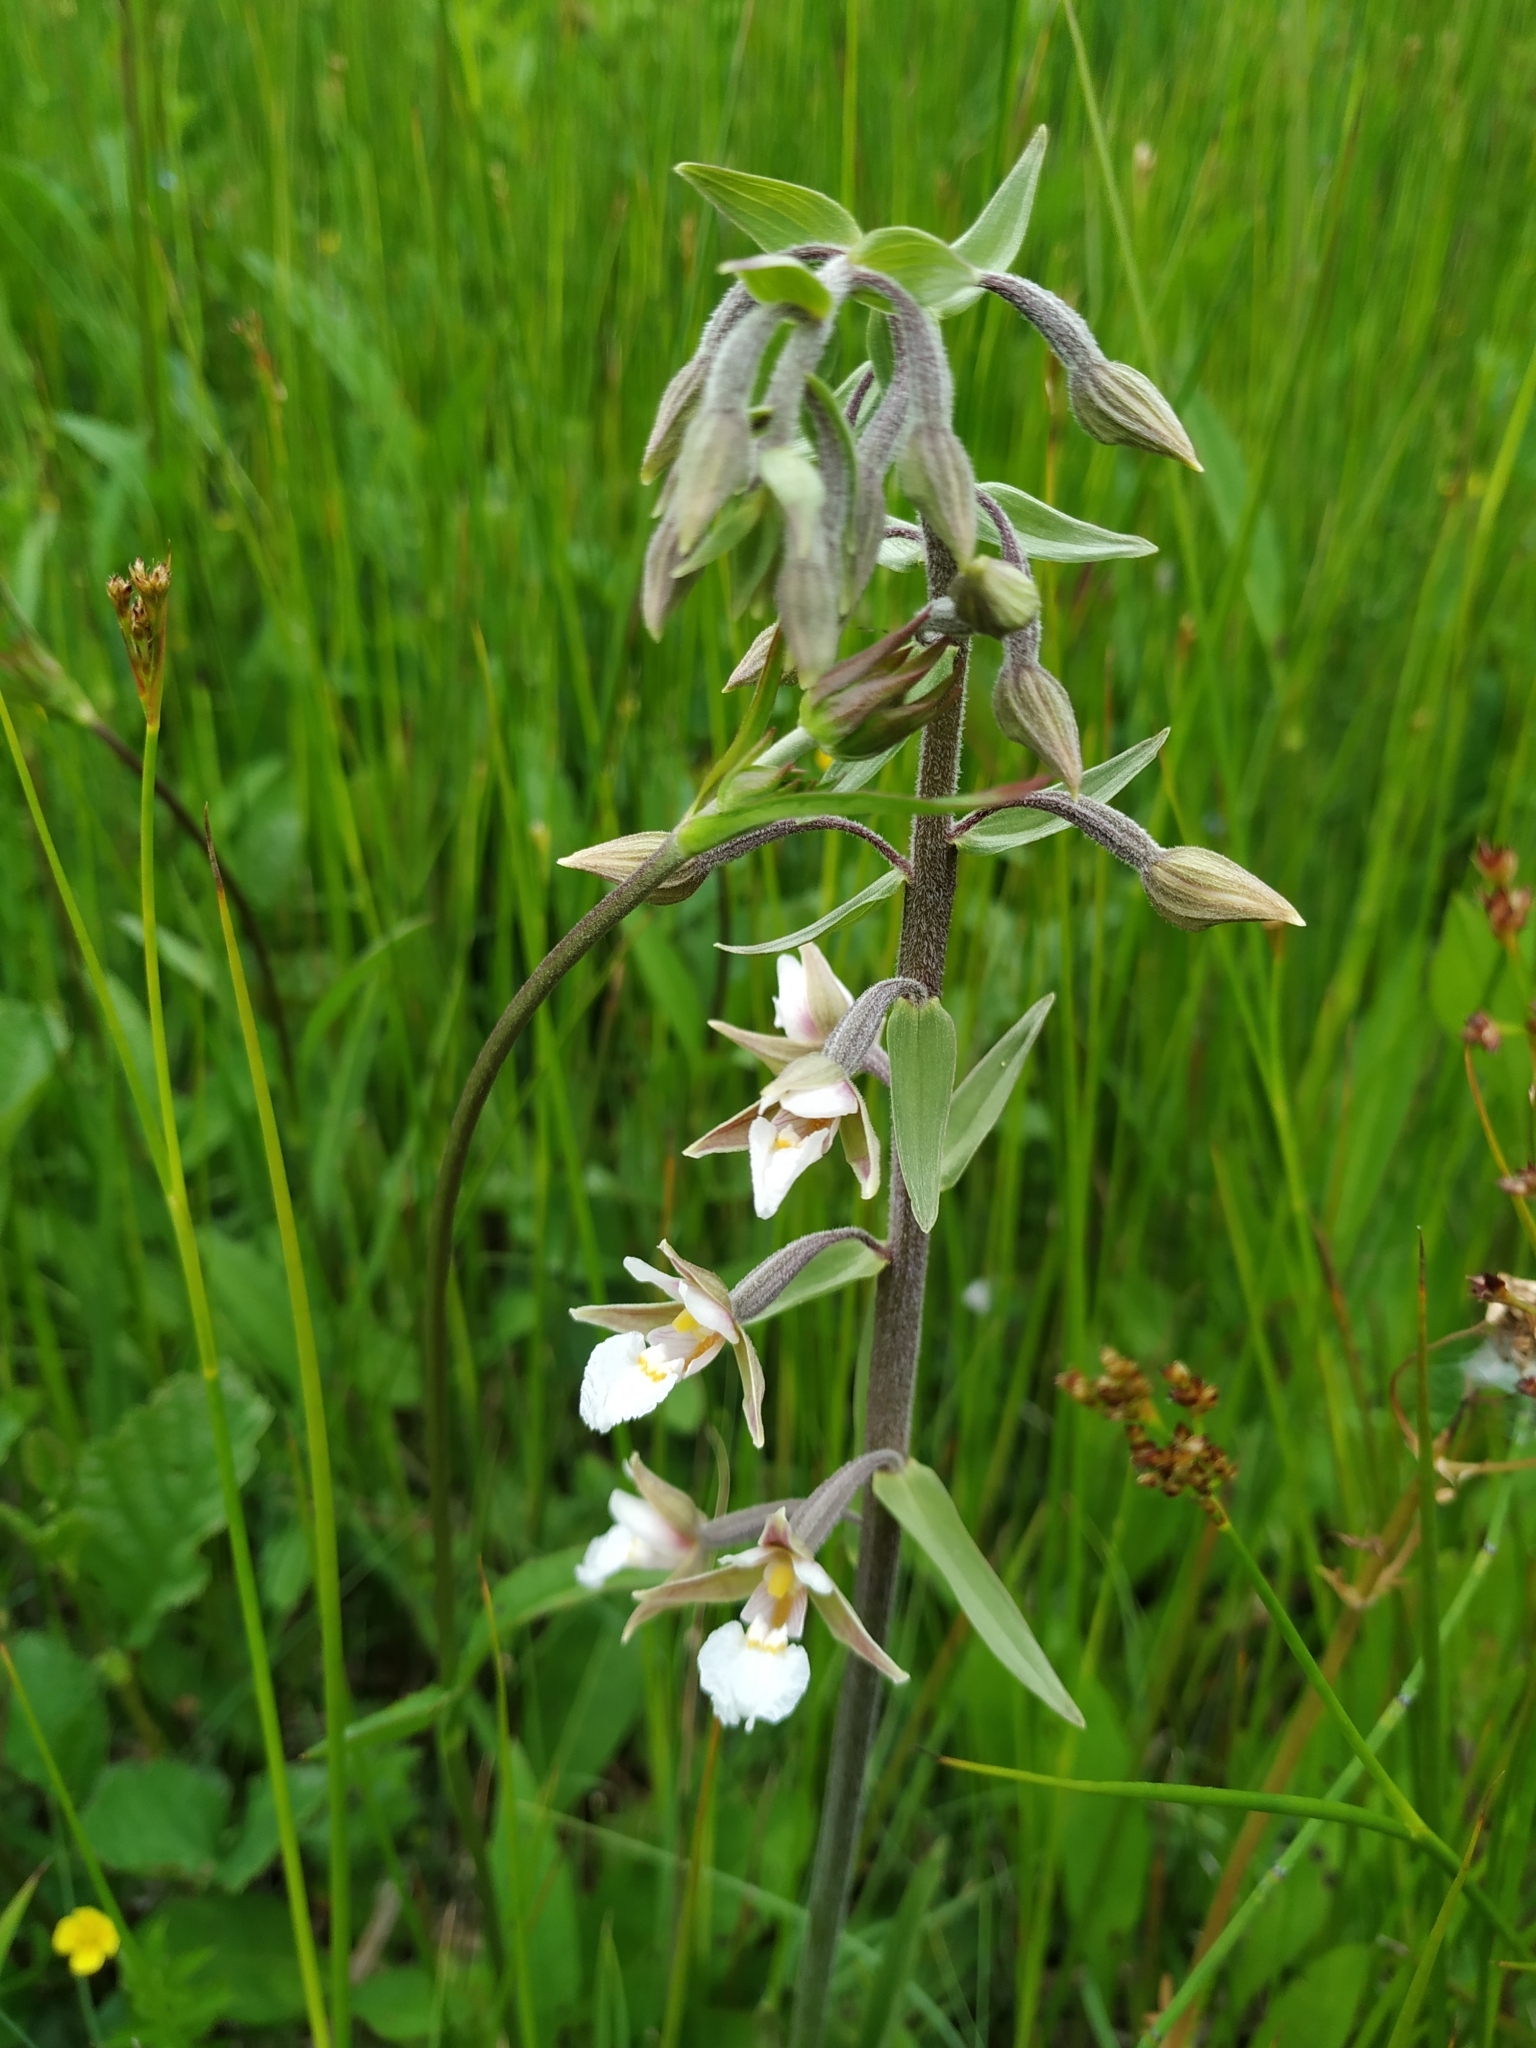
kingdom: Plantae
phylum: Tracheophyta
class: Liliopsida
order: Asparagales
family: Orchidaceae
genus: Epipactis
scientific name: Epipactis palustris
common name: Marsh helleborine
